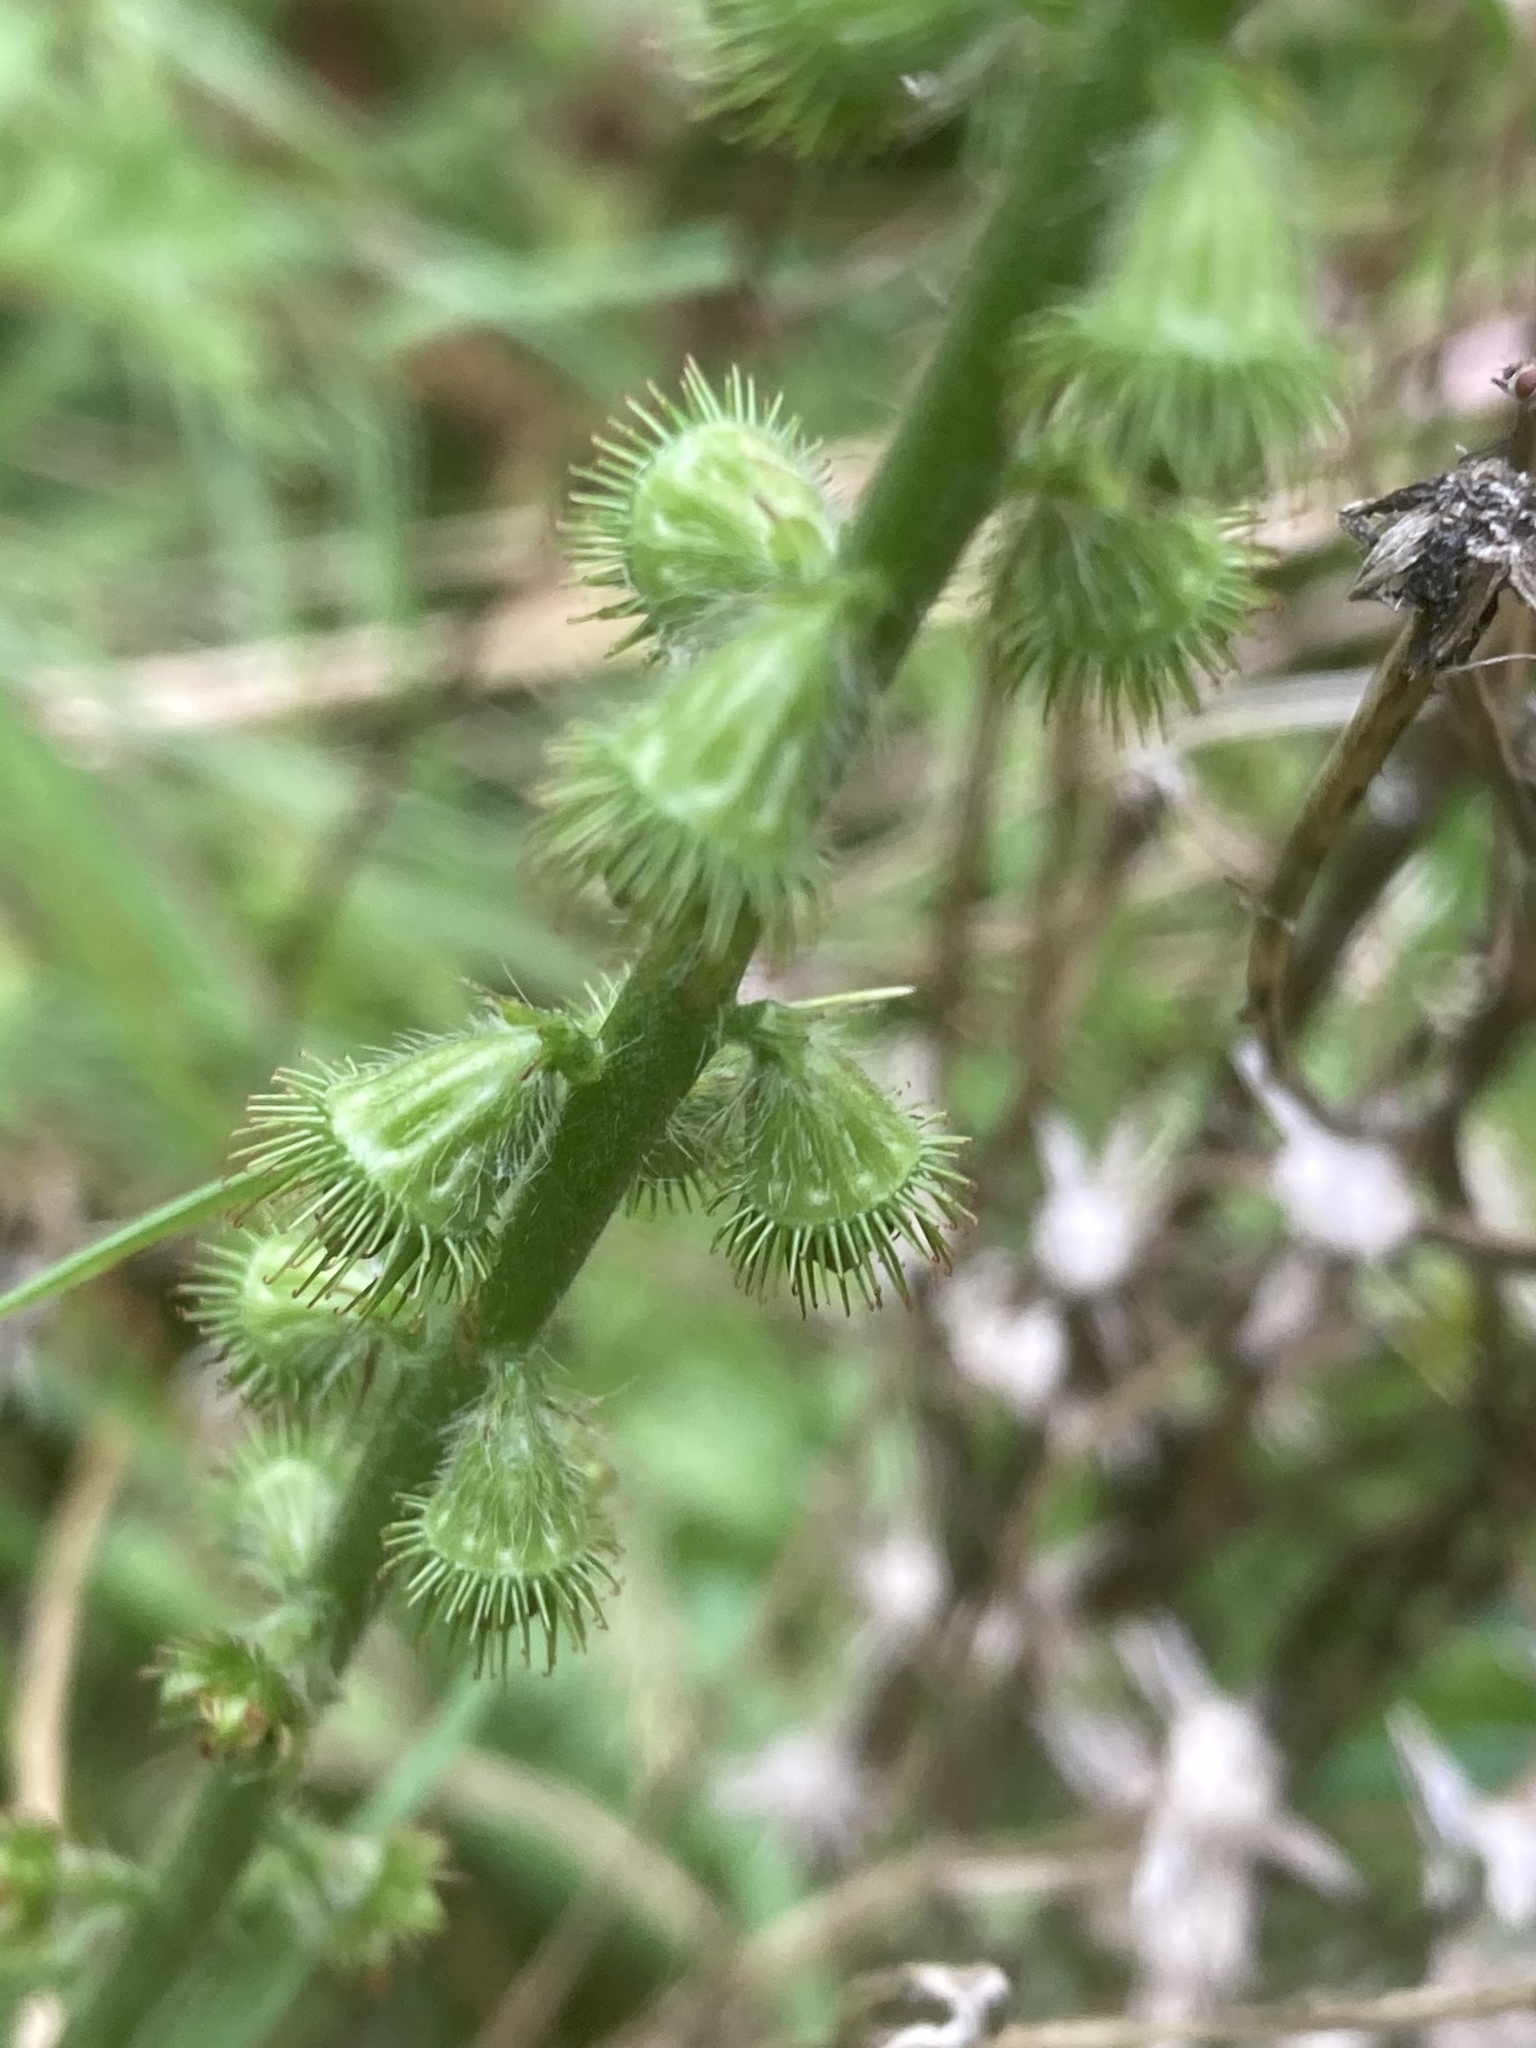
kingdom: Plantae
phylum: Tracheophyta
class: Magnoliopsida
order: Rosales
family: Rosaceae
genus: Agrimonia
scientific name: Agrimonia eupatoria
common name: Agrimony
